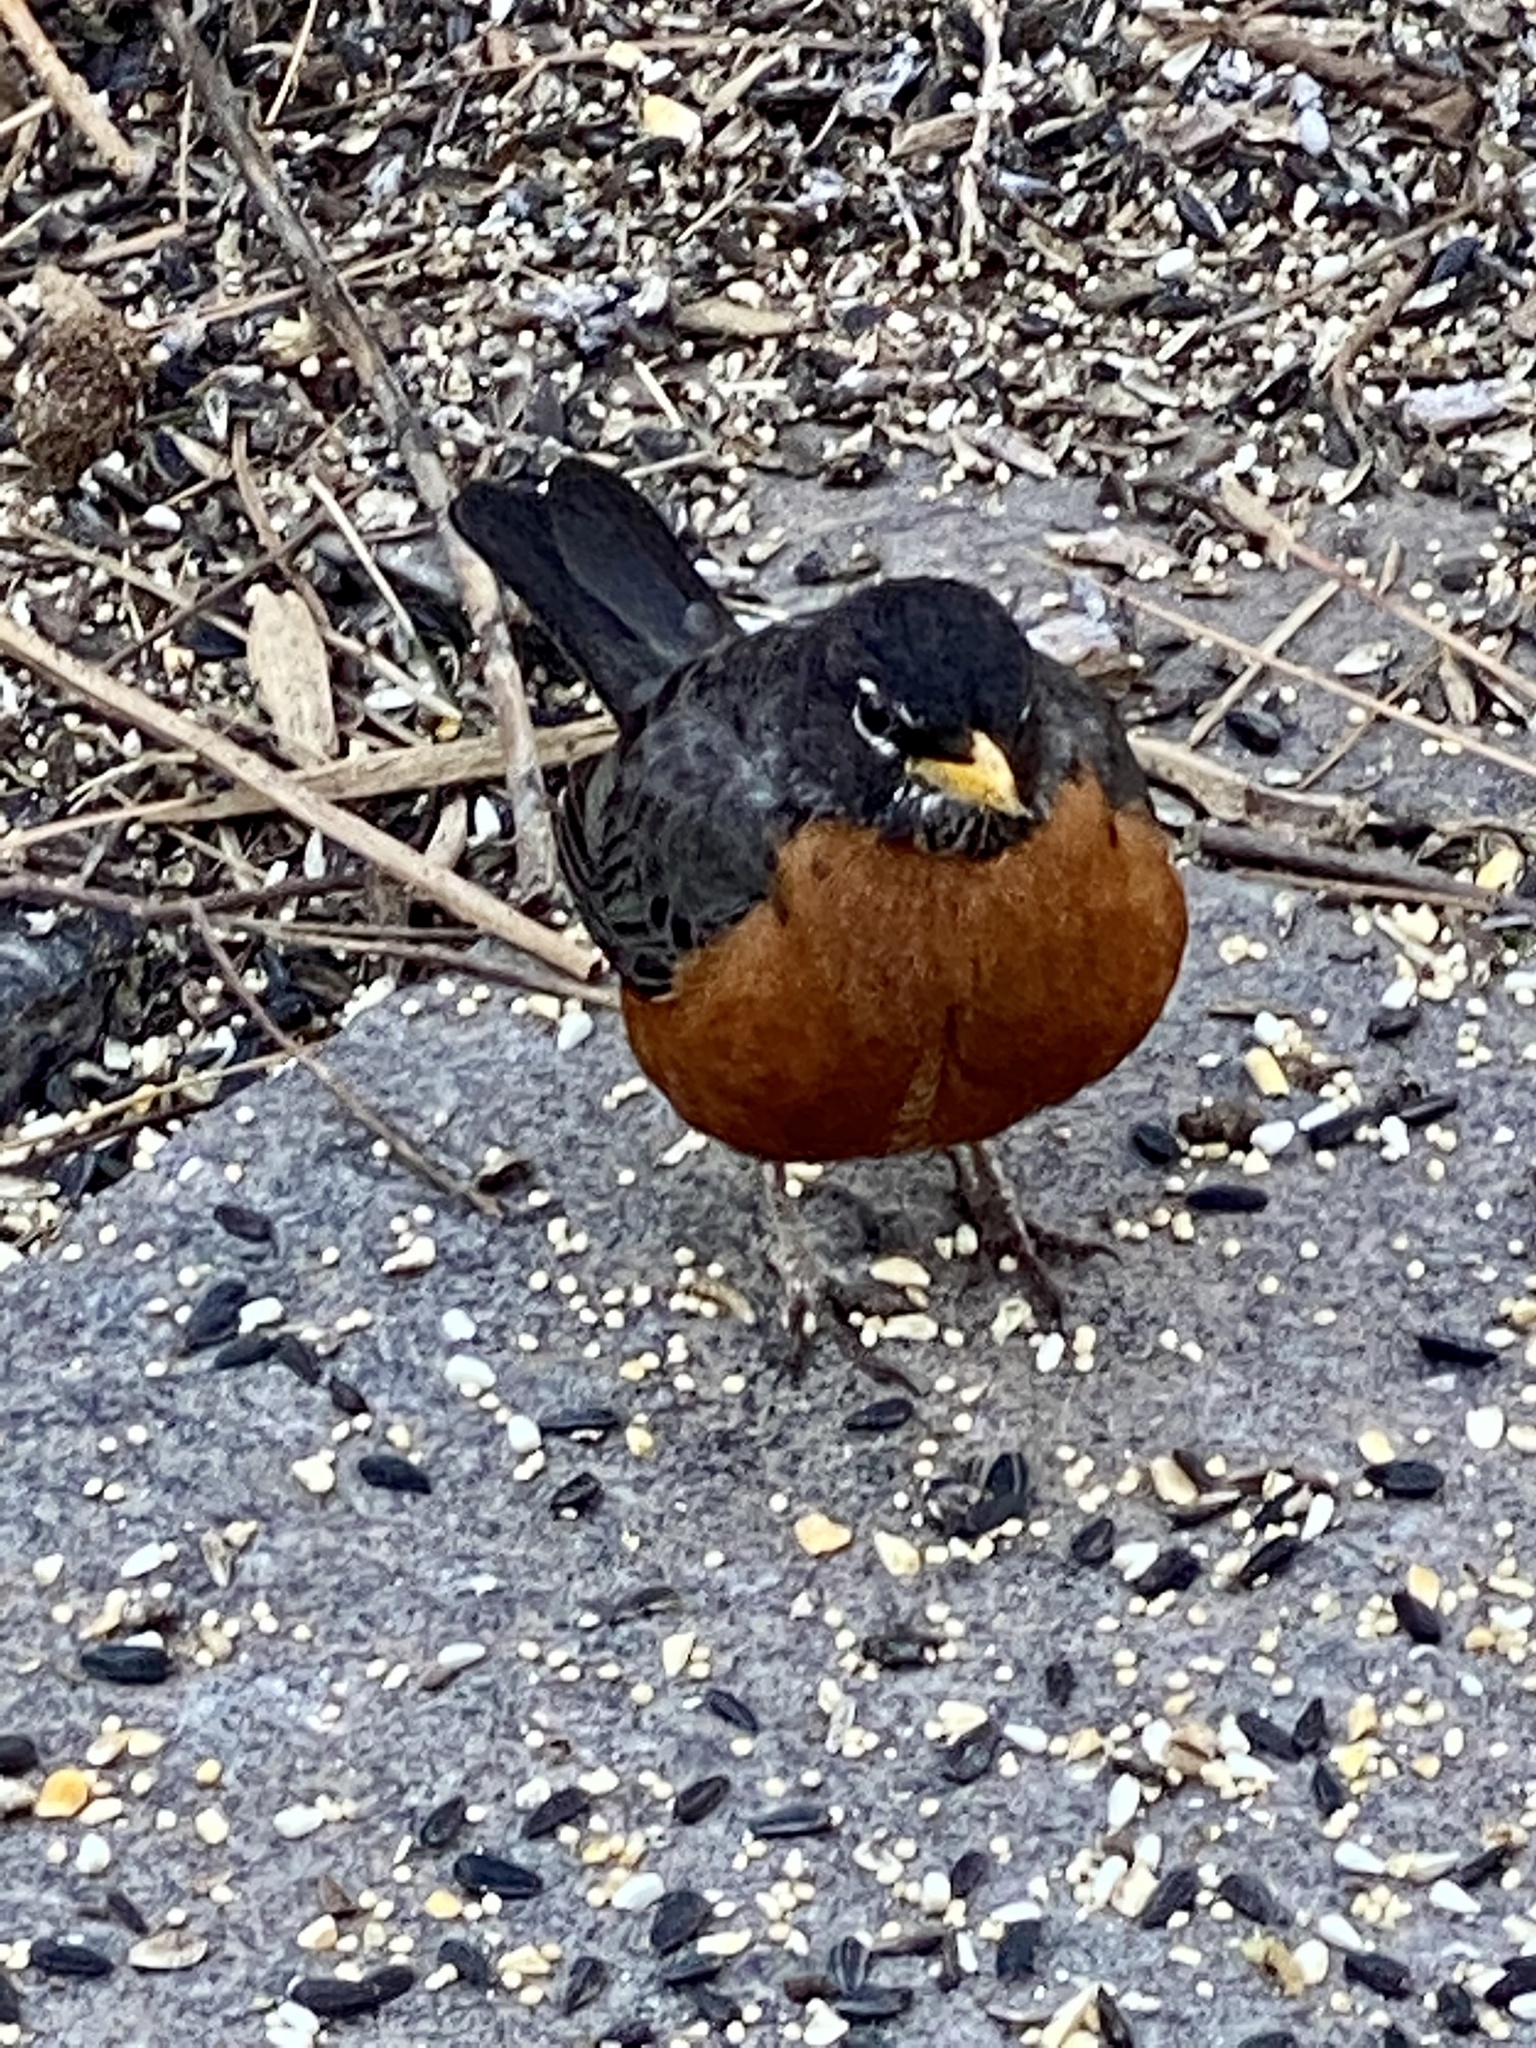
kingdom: Animalia
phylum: Chordata
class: Aves
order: Passeriformes
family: Turdidae
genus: Turdus
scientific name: Turdus migratorius
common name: American robin
